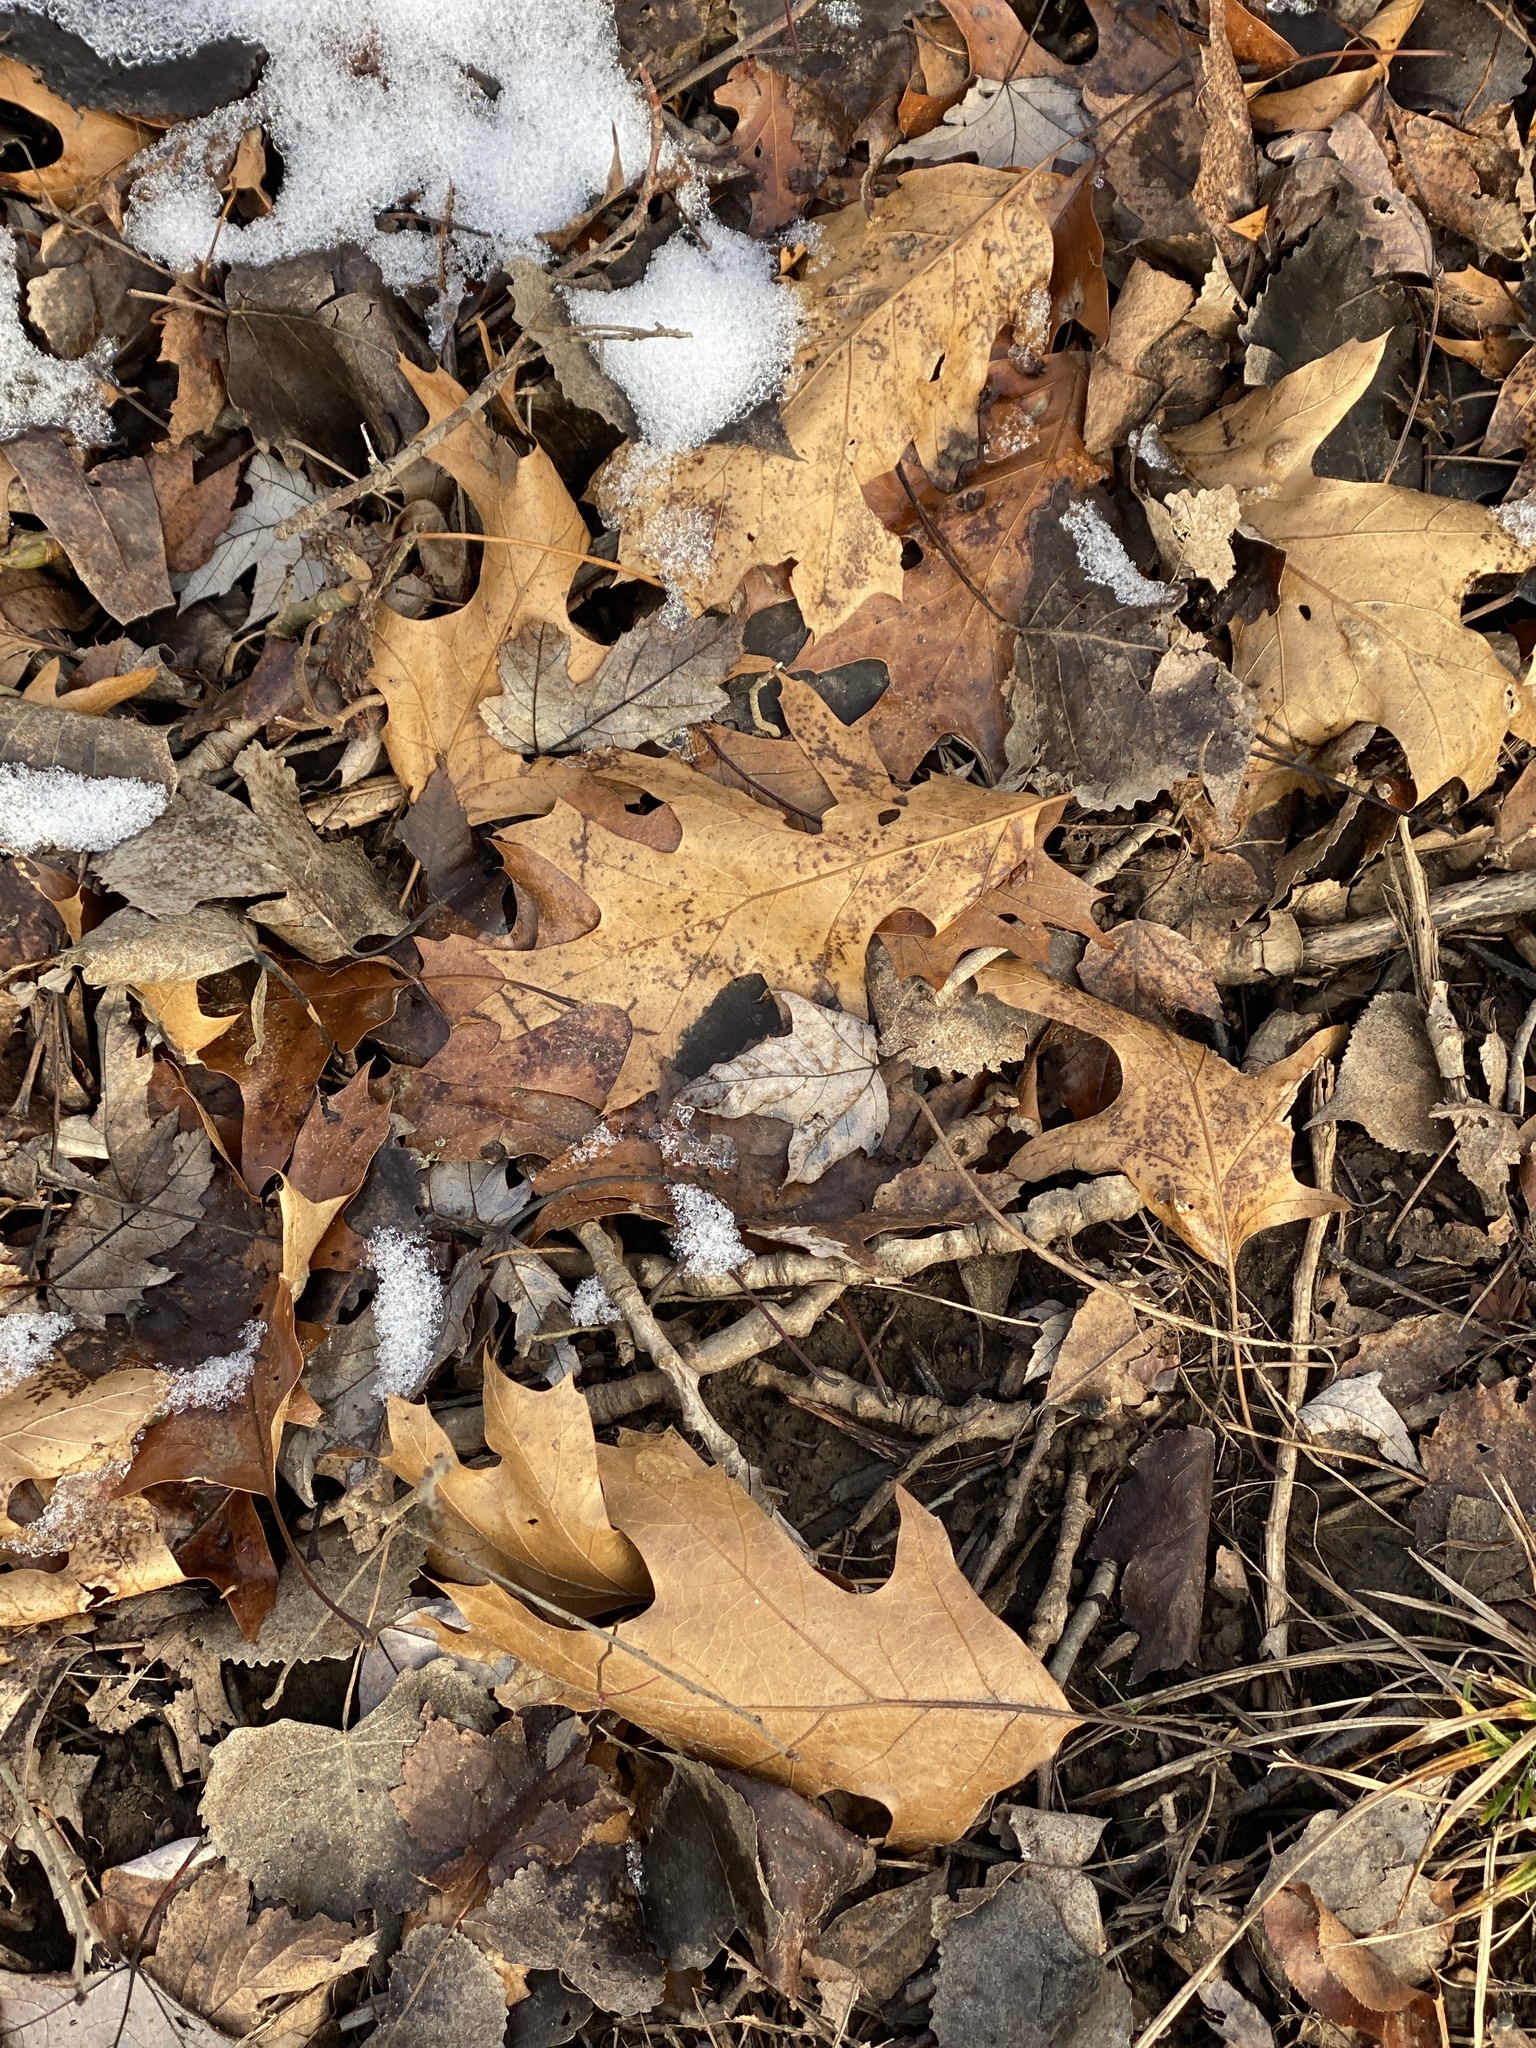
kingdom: Plantae
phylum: Tracheophyta
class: Magnoliopsida
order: Fagales
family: Fagaceae
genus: Quercus
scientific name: Quercus velutina
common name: Black oak
